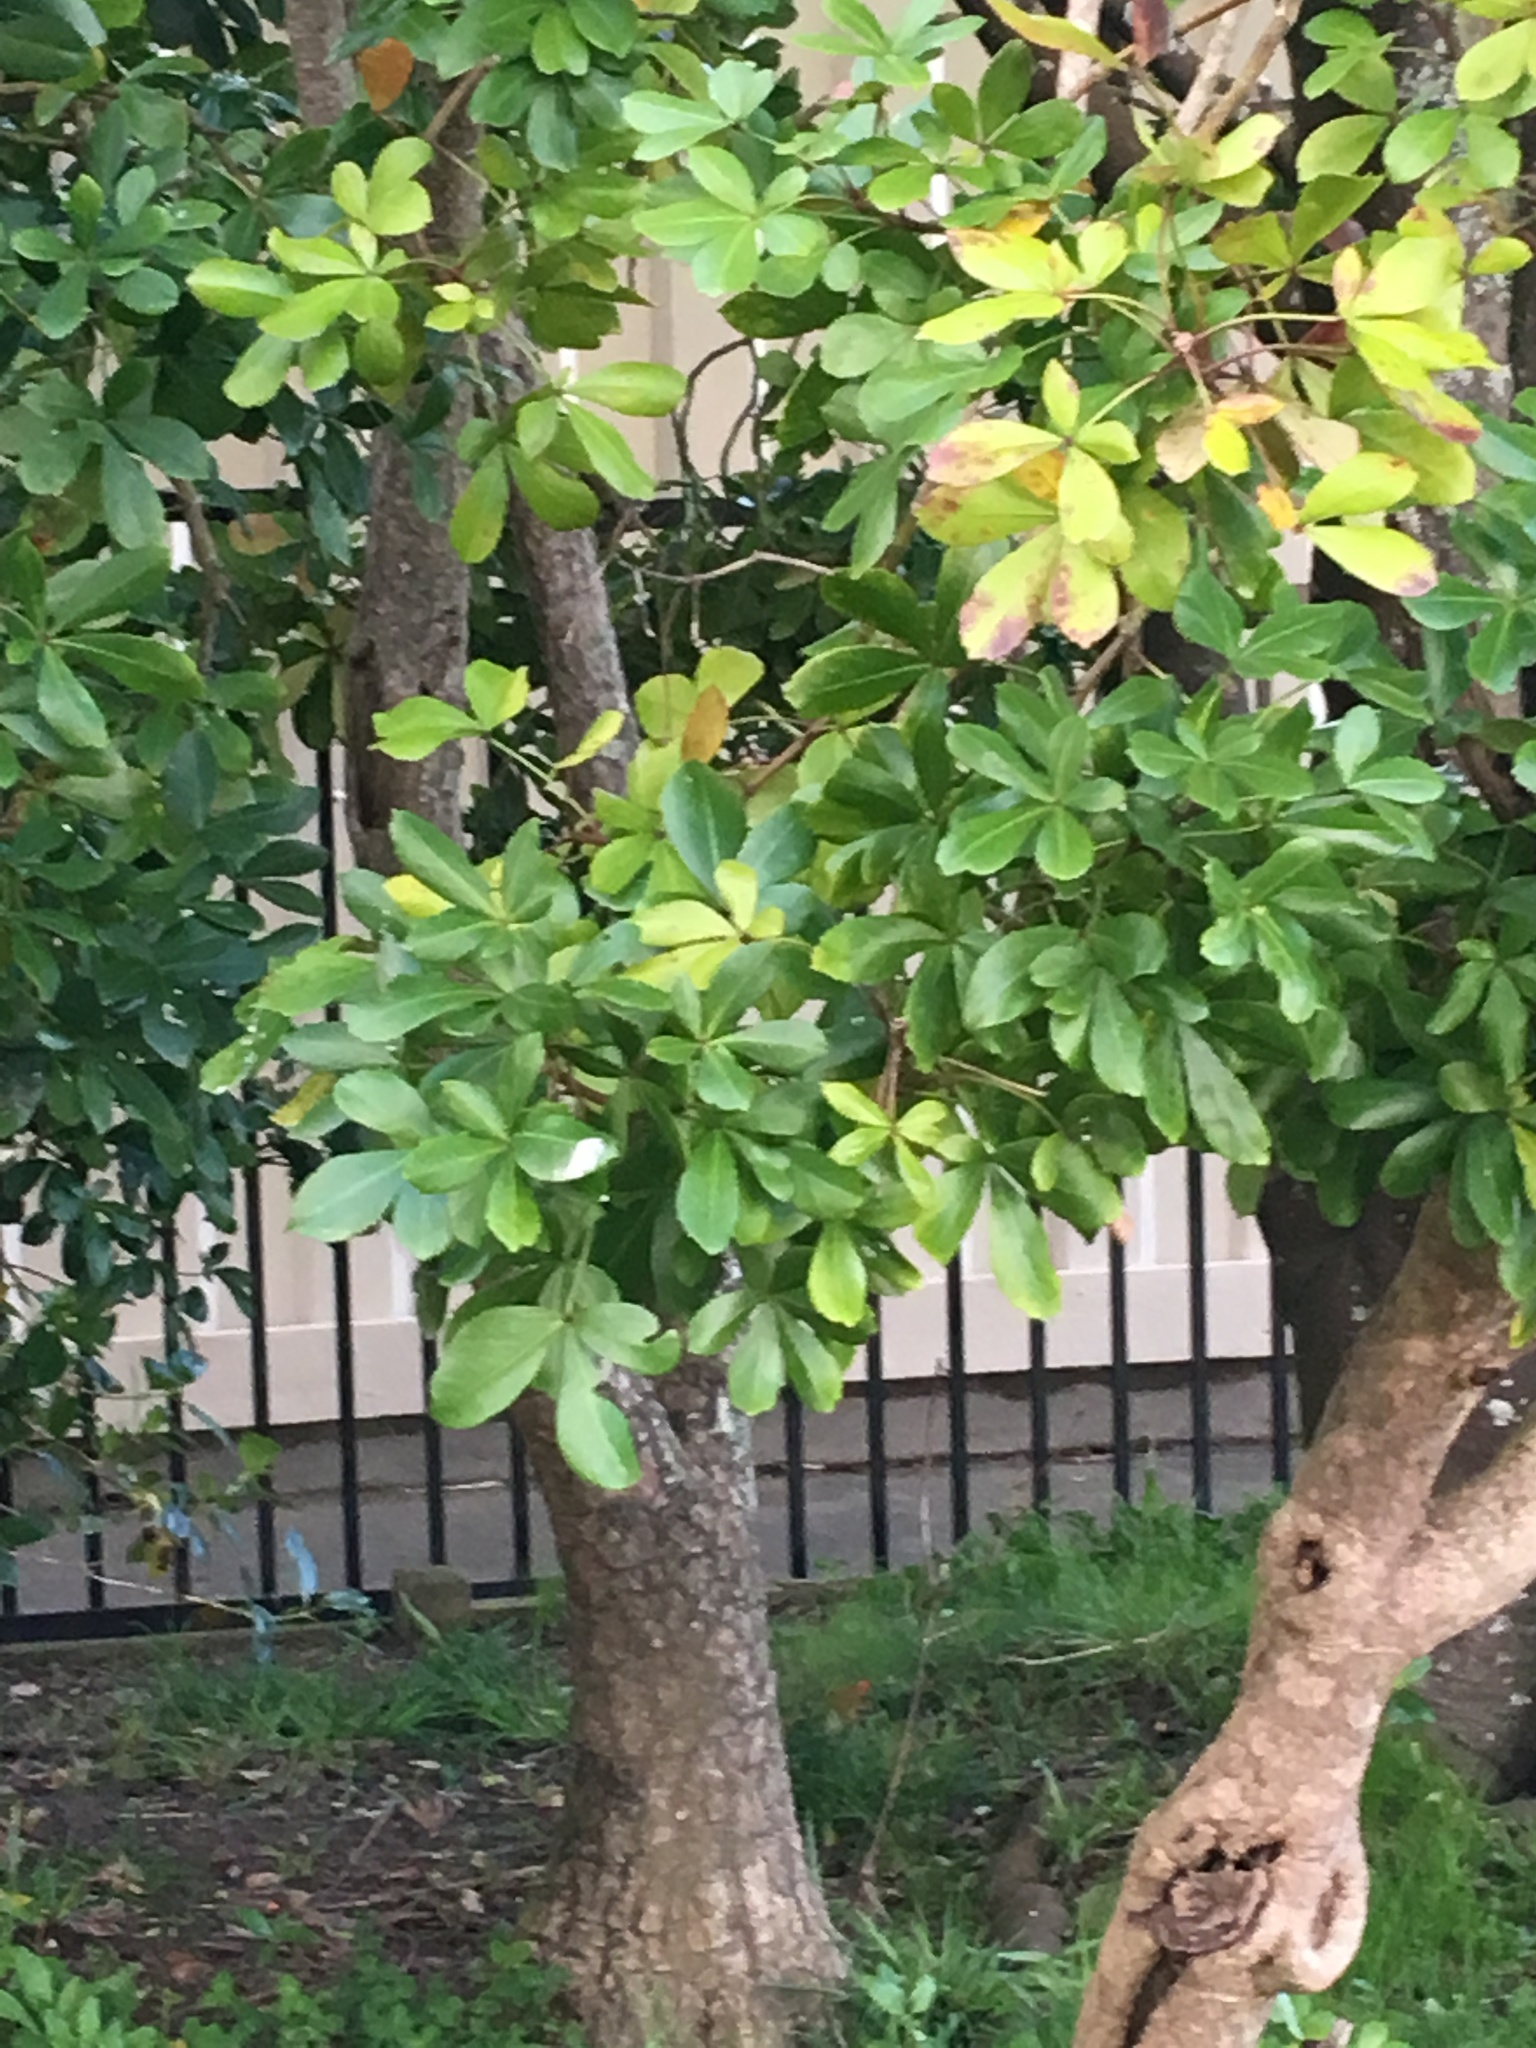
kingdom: Plantae
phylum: Tracheophyta
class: Magnoliopsida
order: Apiales
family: Araliaceae
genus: Pseudopanax
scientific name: Pseudopanax lessonii
